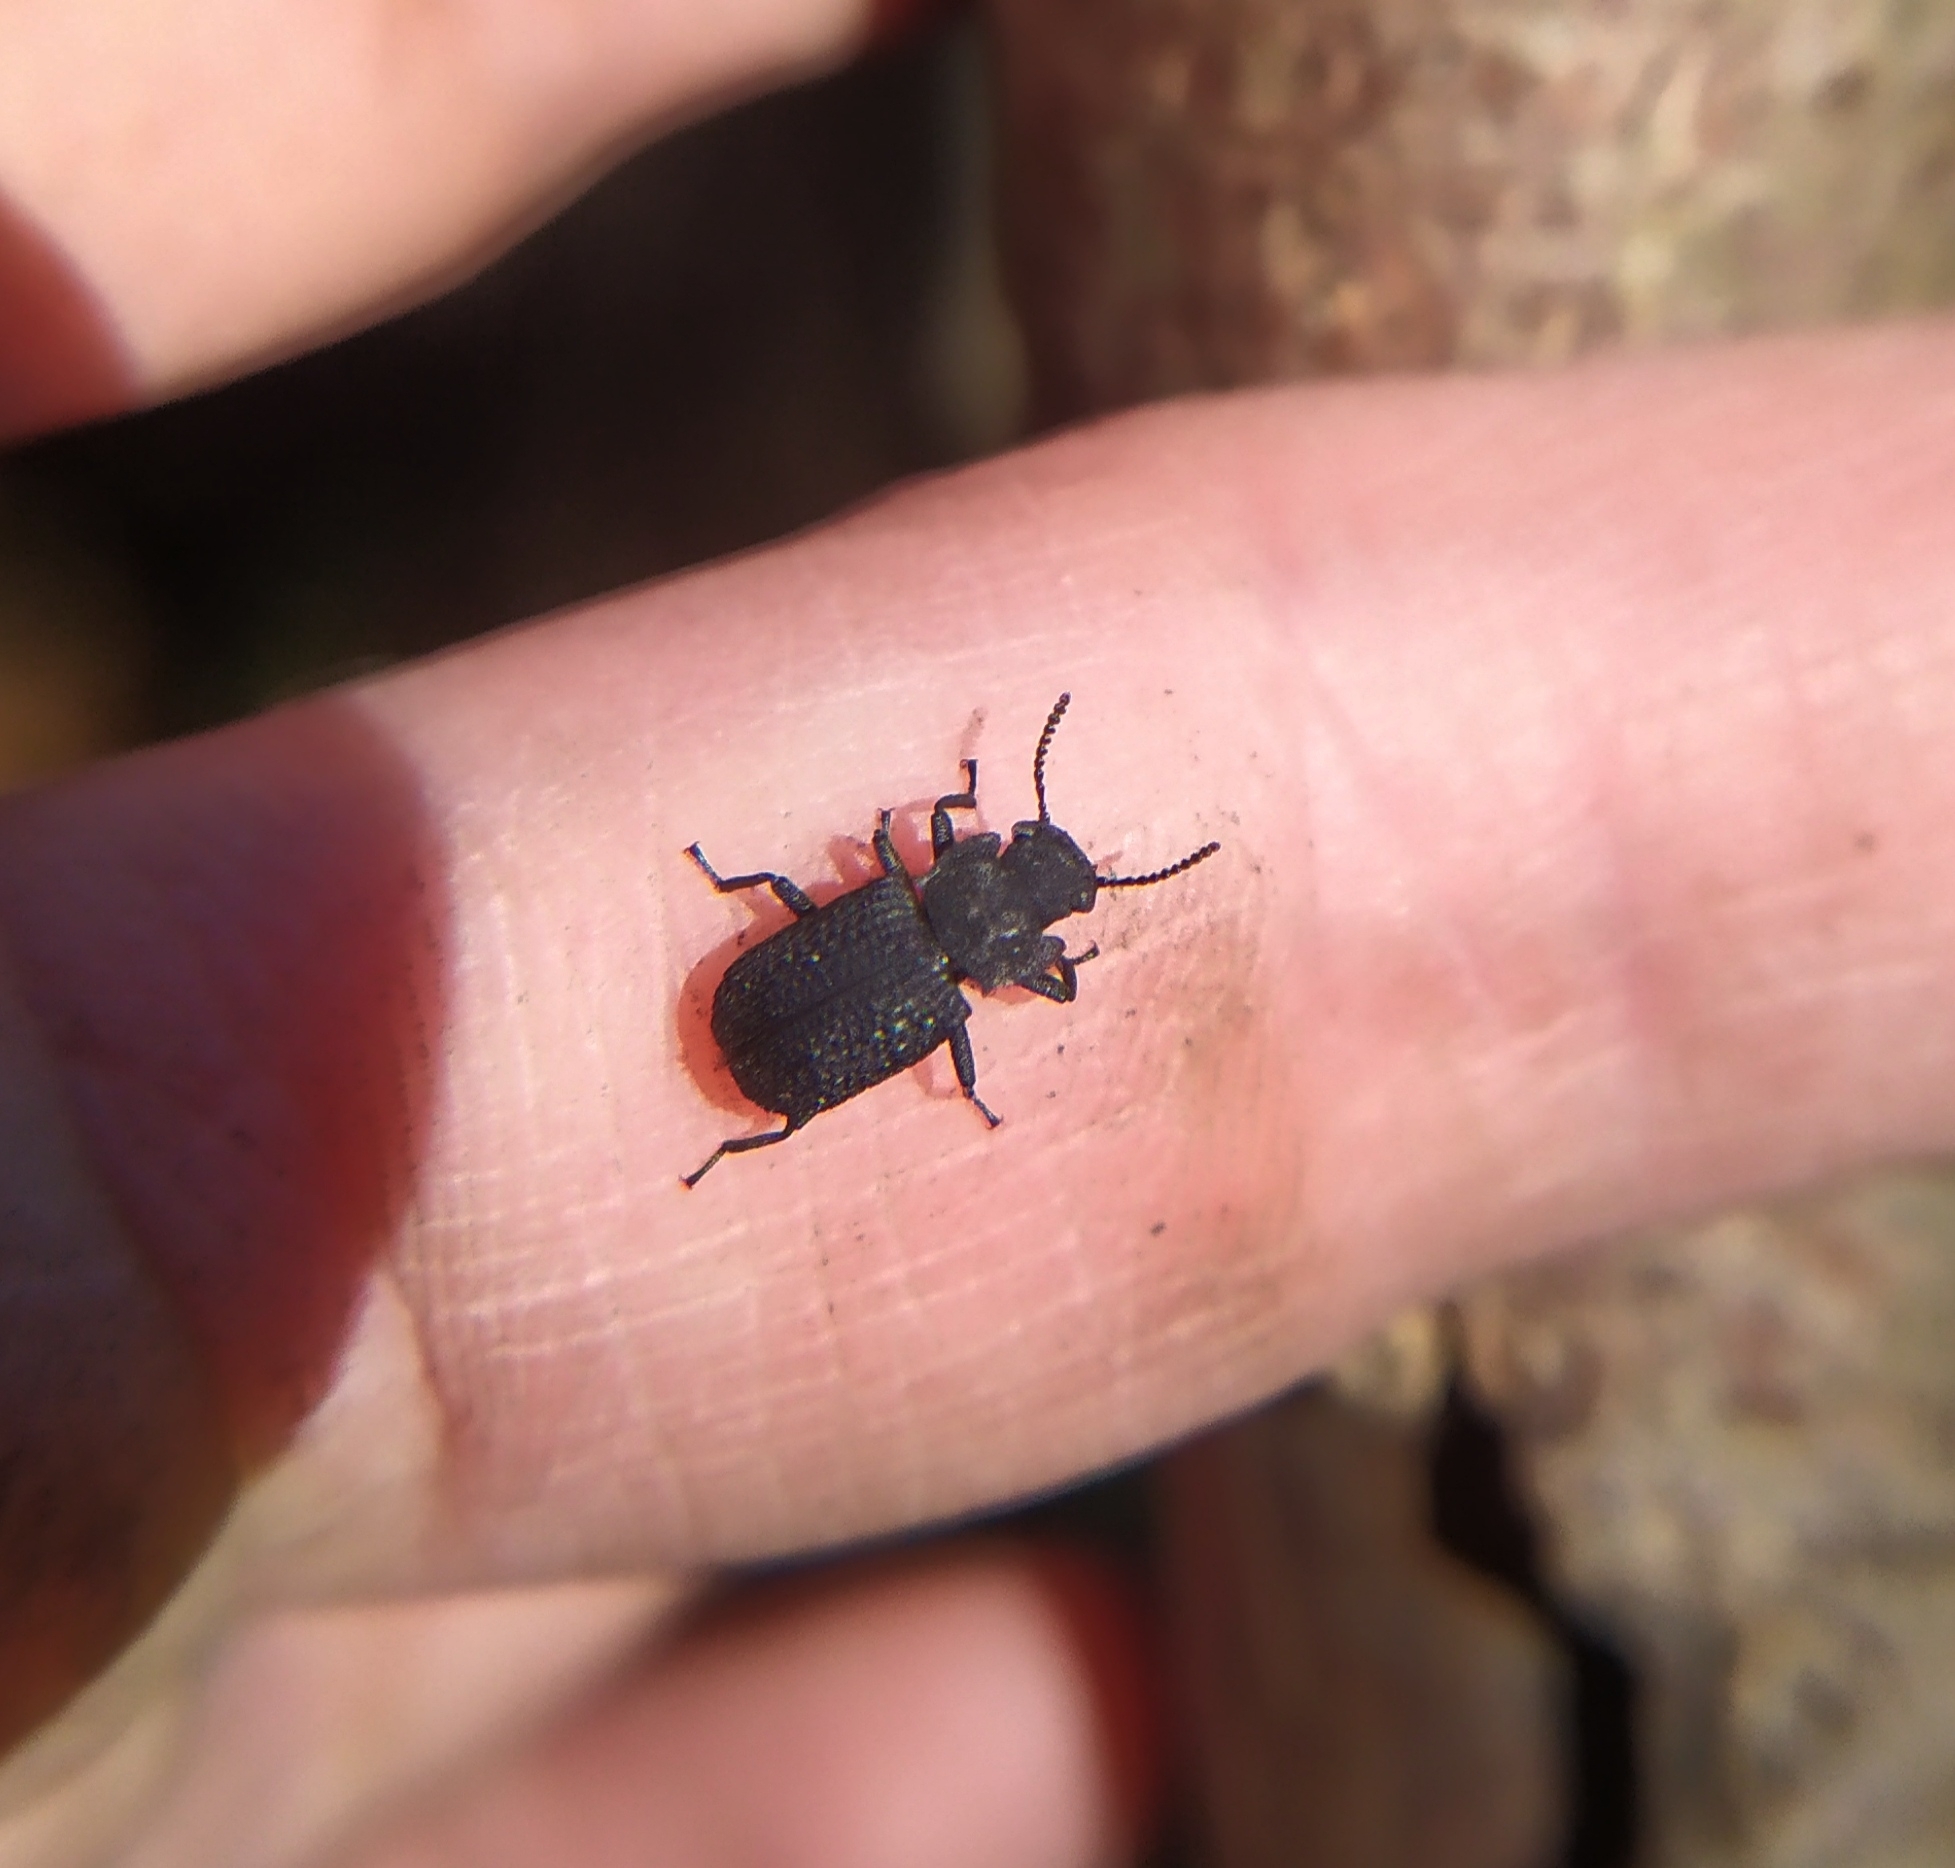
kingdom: Animalia
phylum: Arthropoda
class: Insecta
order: Coleoptera
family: Tenebrionidae
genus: Bolitophagus
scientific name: Bolitophagus reticulatus
